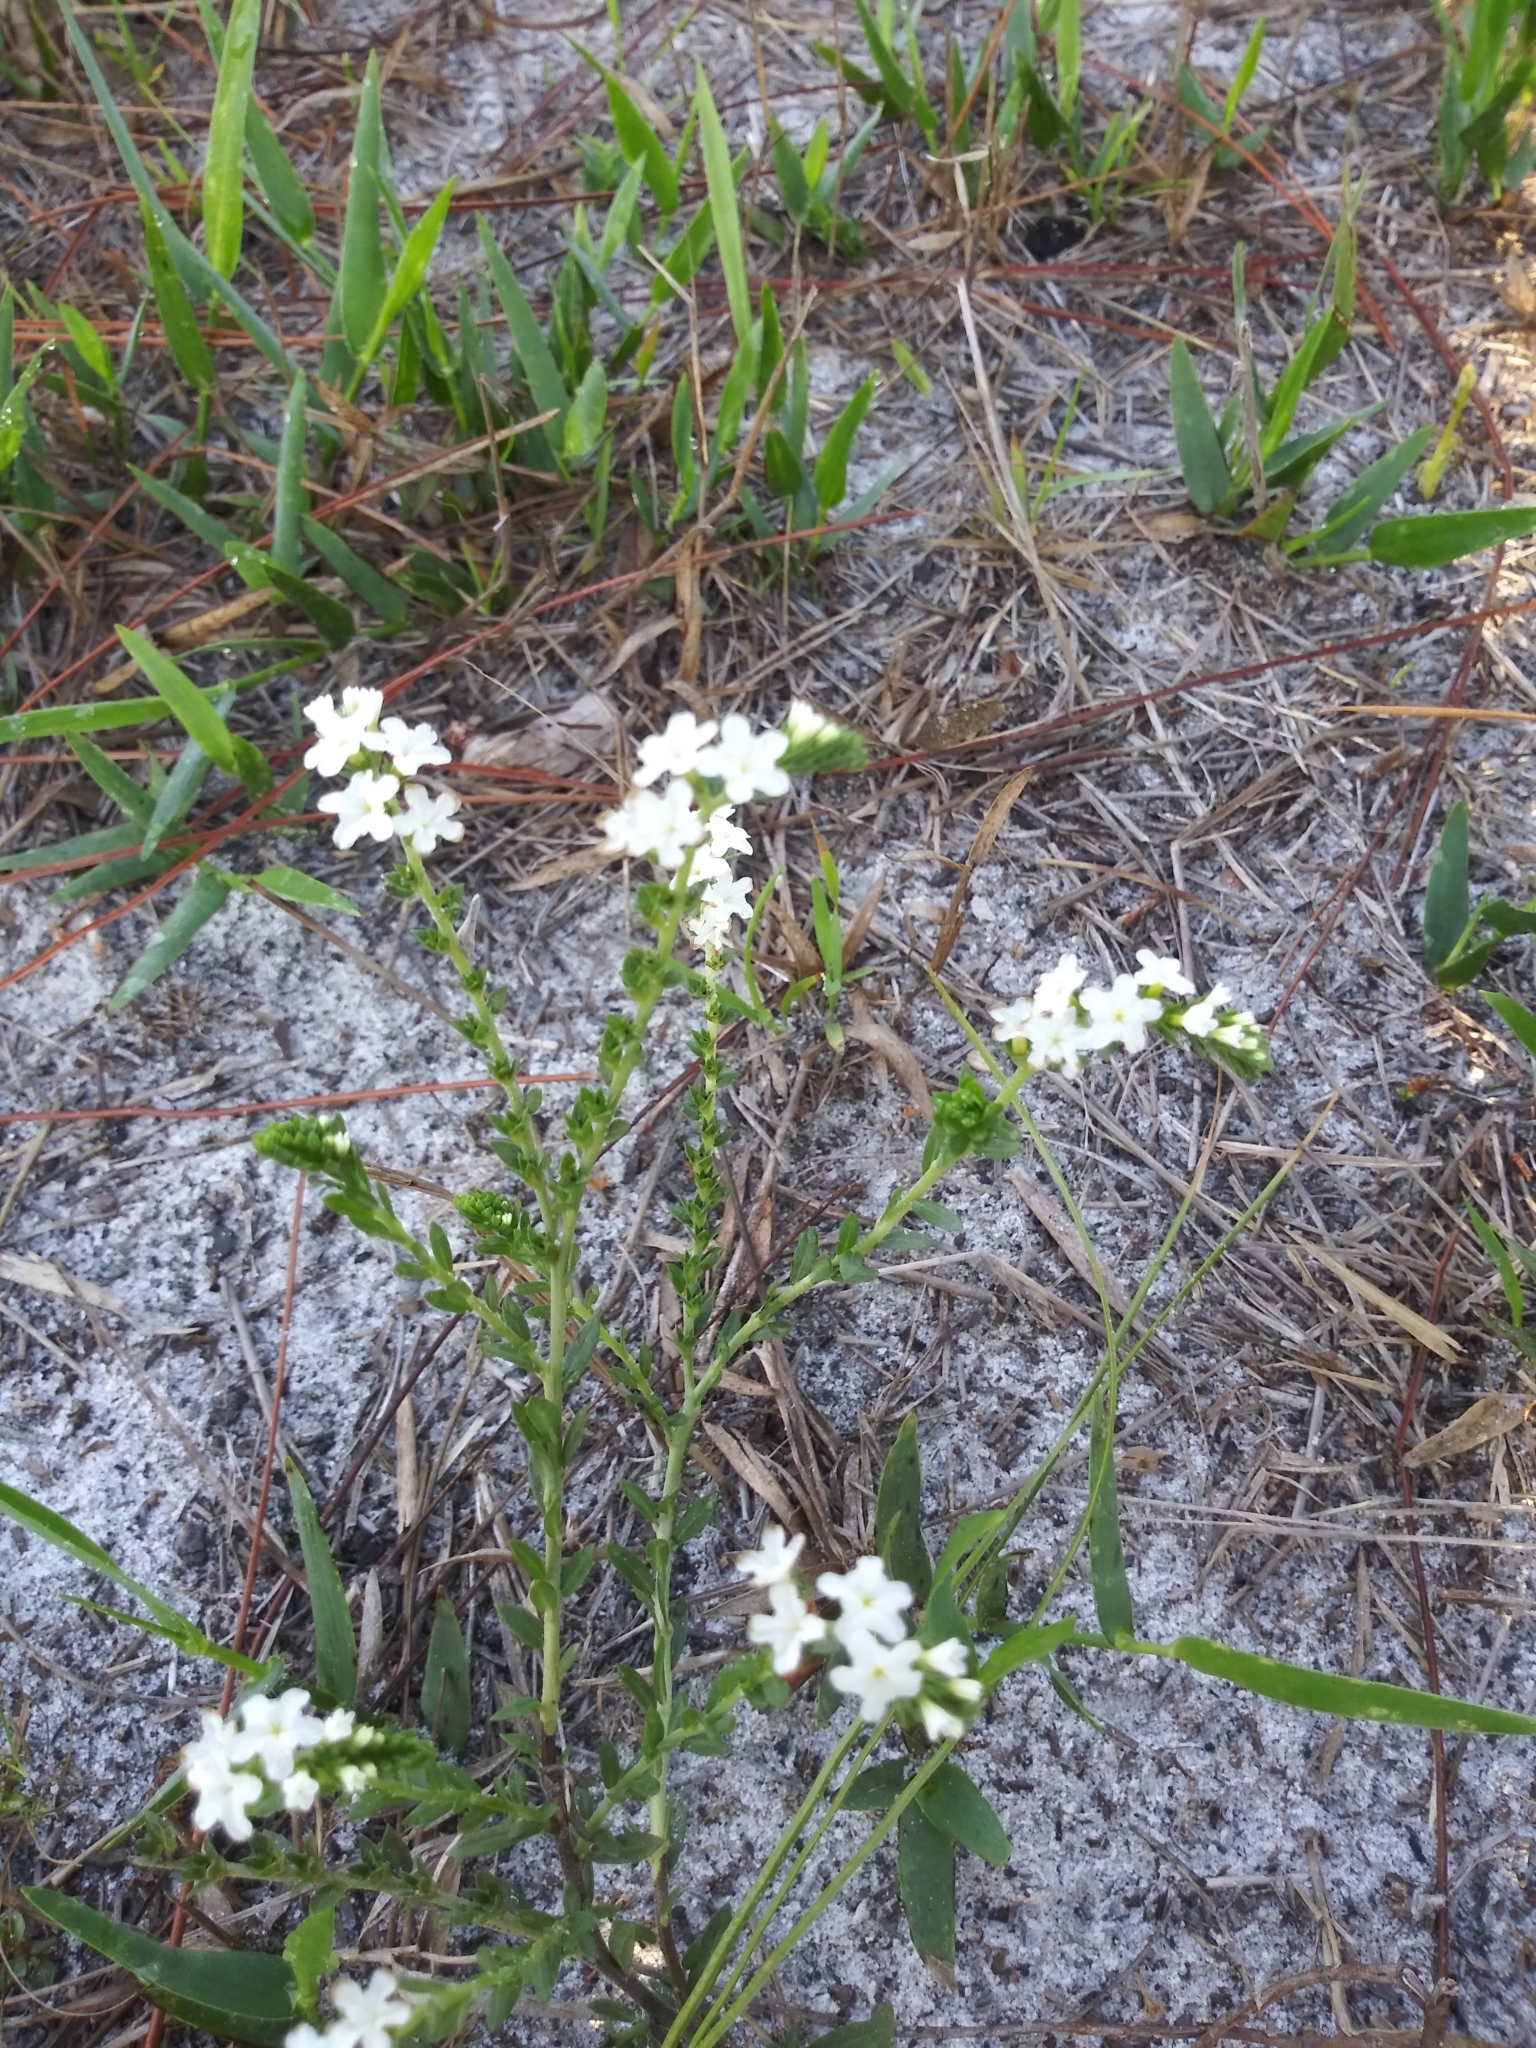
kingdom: Plantae
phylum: Tracheophyta
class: Magnoliopsida
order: Boraginales
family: Heliotropiaceae
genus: Euploca
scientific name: Euploca polyphylla
